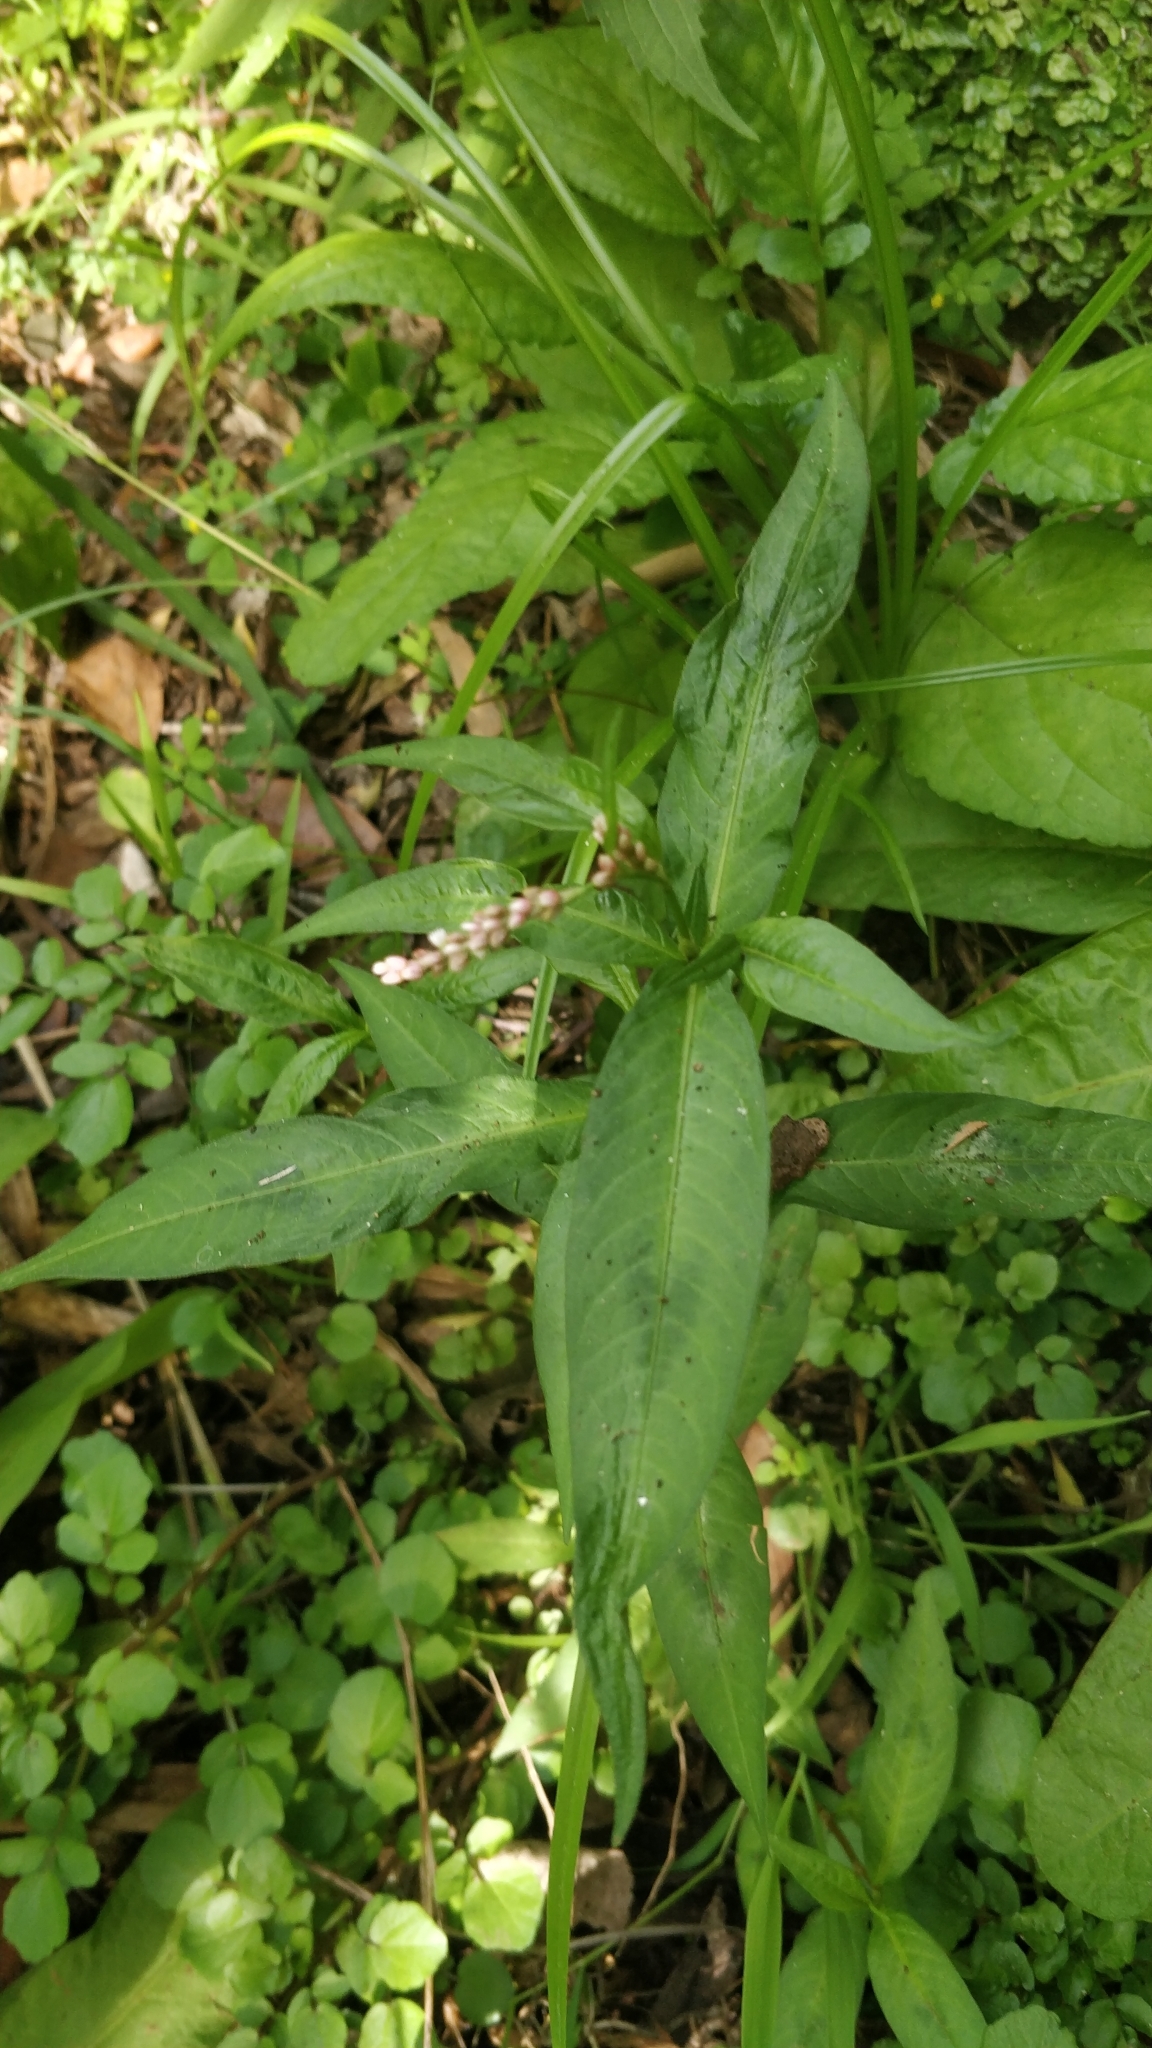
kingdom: Plantae
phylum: Tracheophyta
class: Magnoliopsida
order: Caryophyllales
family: Polygonaceae
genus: Persicaria
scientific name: Persicaria maculosa
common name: Redshank
